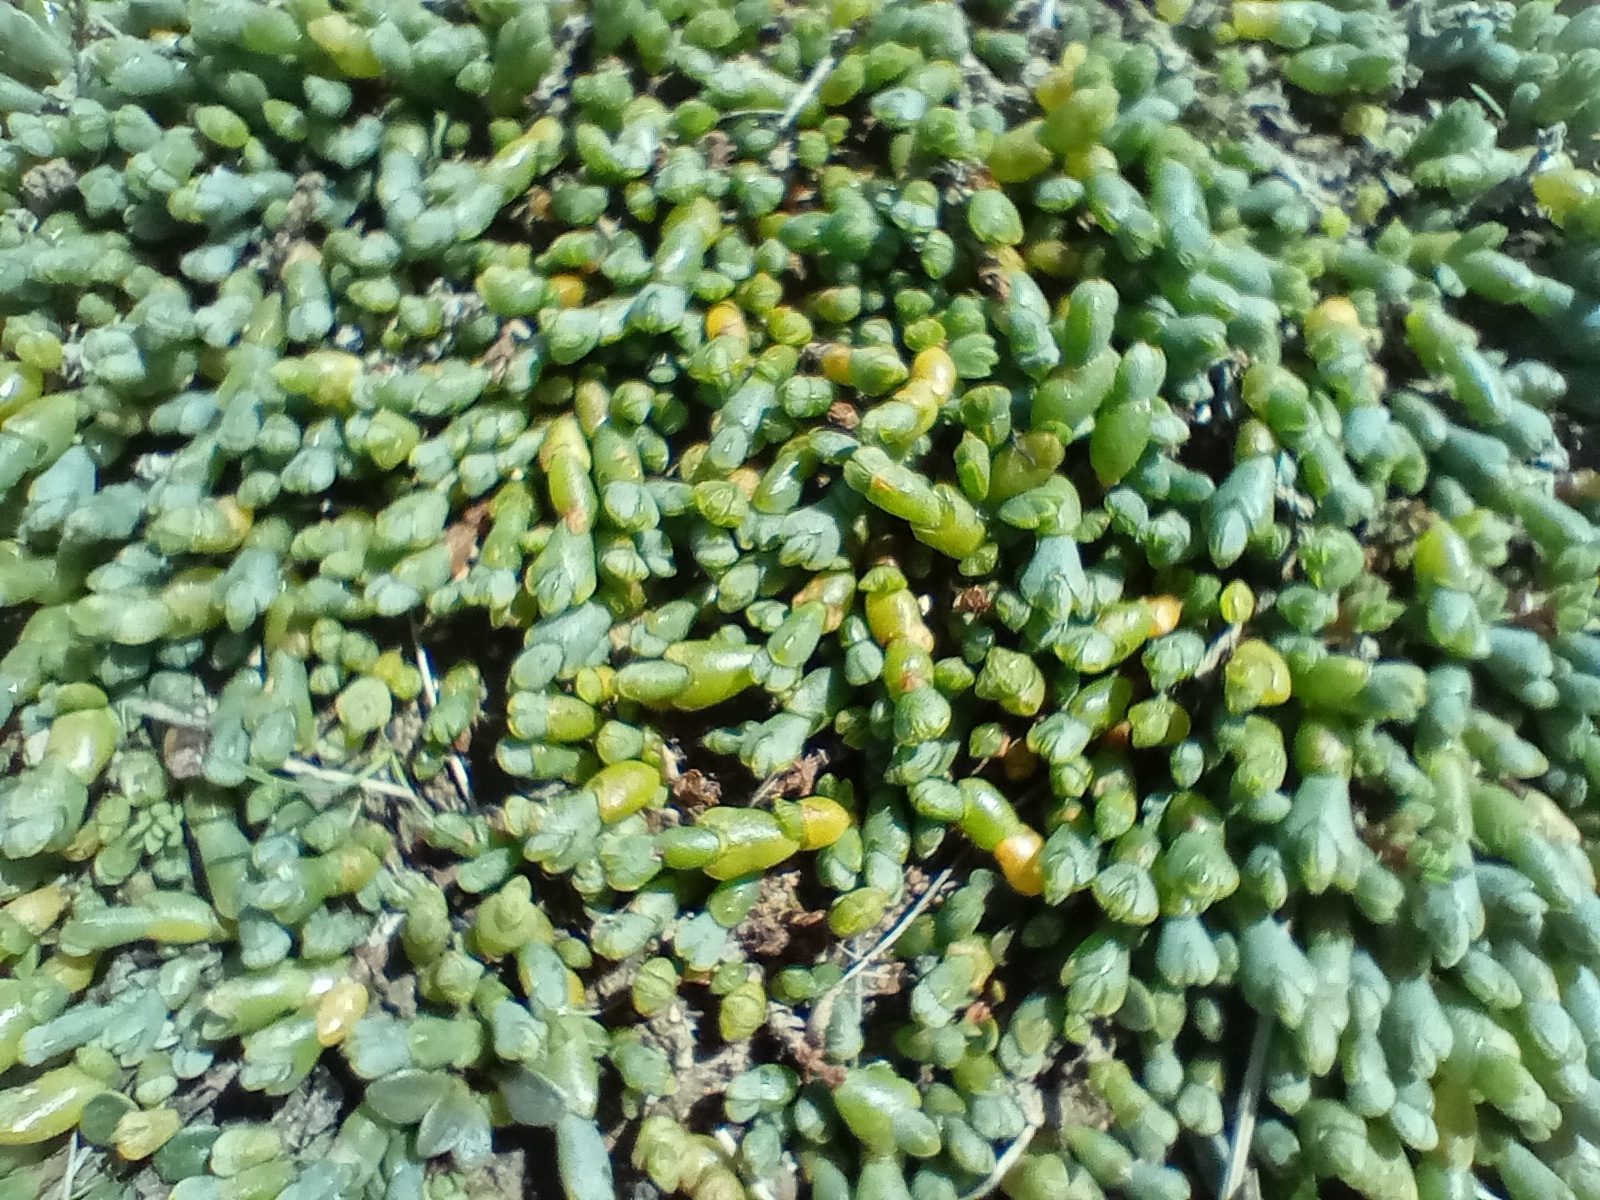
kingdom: Plantae
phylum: Tracheophyta
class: Magnoliopsida
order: Caryophyllales
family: Amaranthaceae
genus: Salicornia
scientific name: Salicornia quinqueflora
